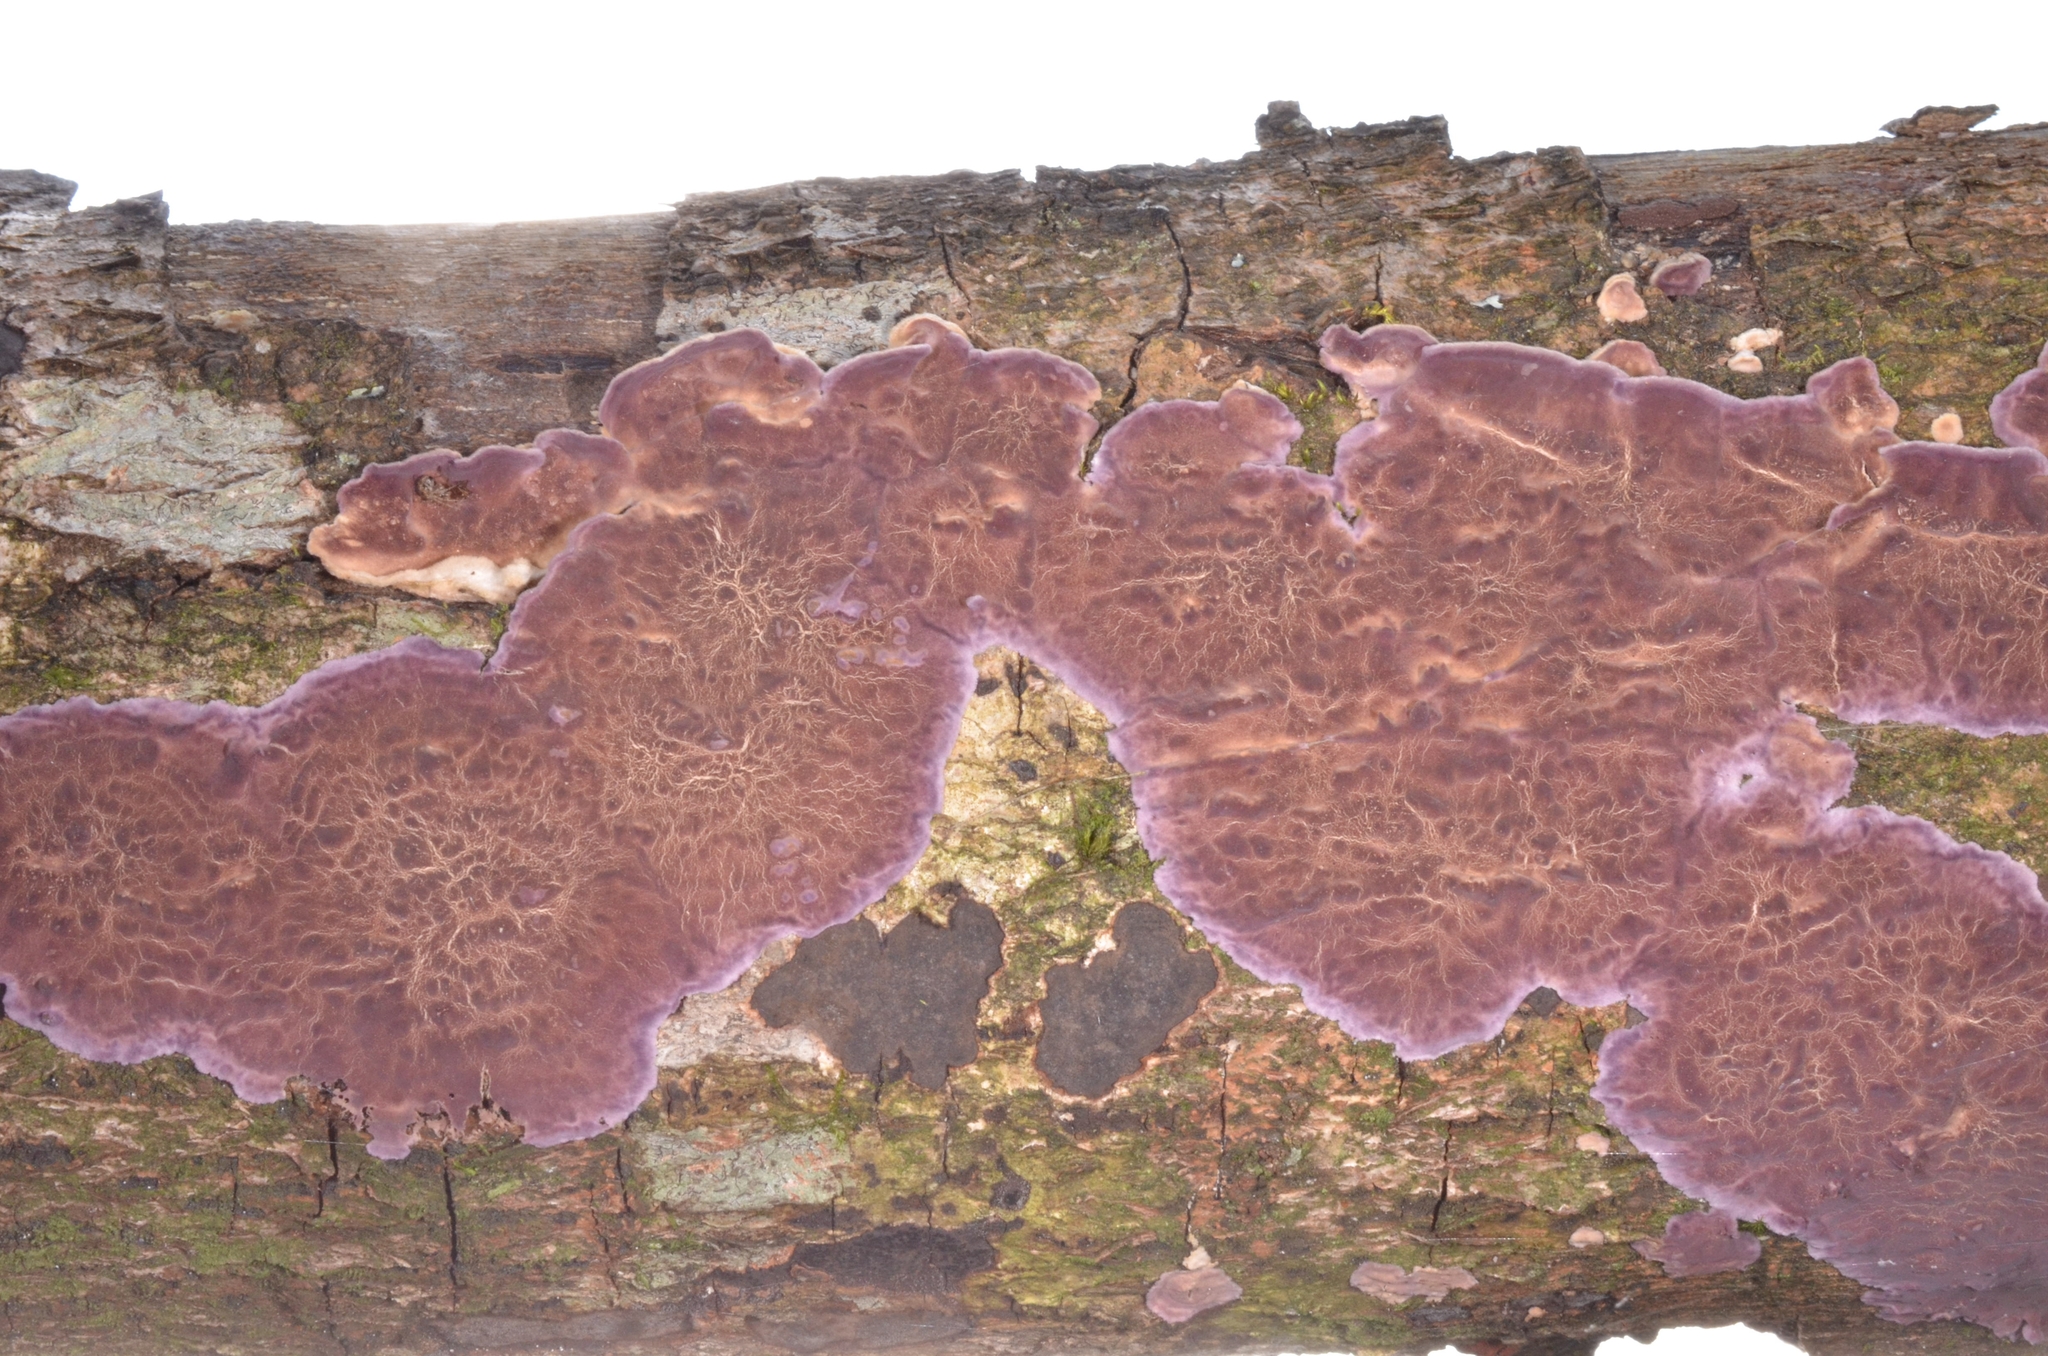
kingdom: Fungi
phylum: Basidiomycota
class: Agaricomycetes
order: Agaricales
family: Cyphellaceae
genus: Chondrostereum
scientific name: Chondrostereum purpureum
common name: Silver leaf disease
